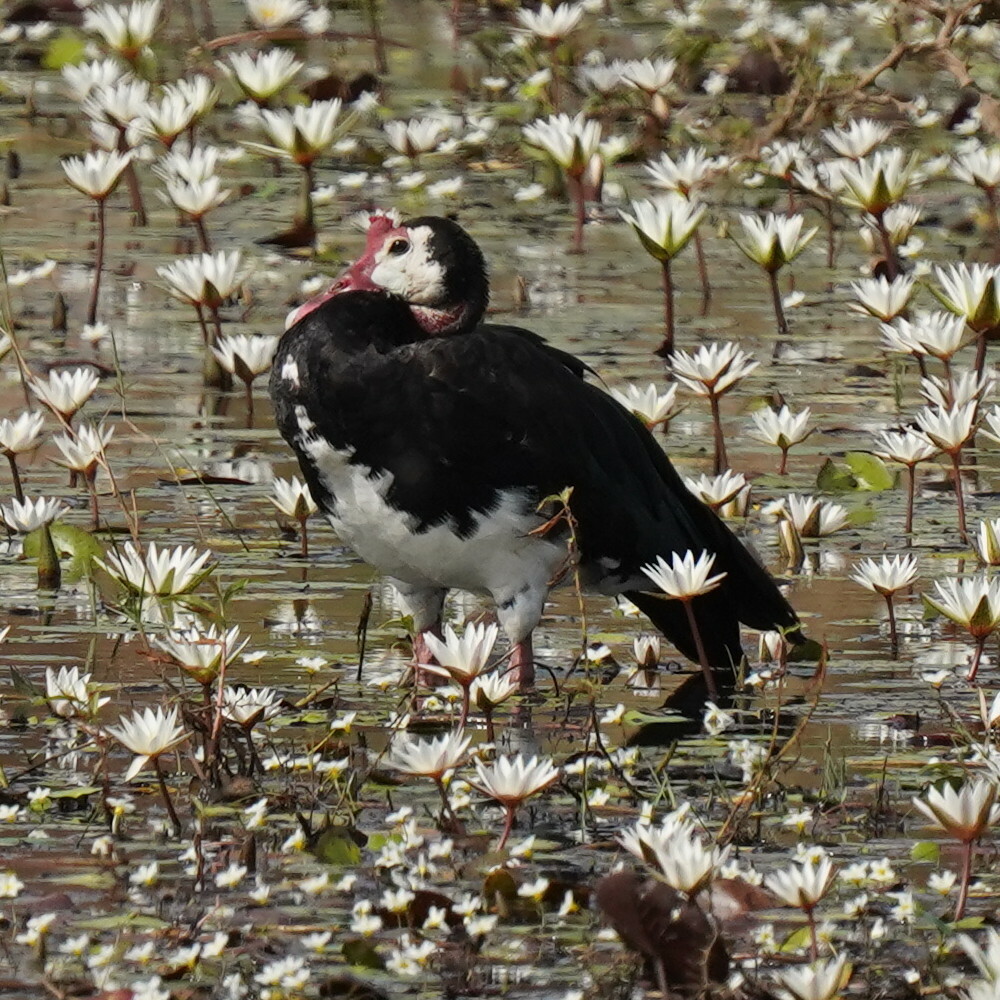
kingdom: Animalia
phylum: Chordata
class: Aves
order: Anseriformes
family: Anatidae
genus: Plectropterus
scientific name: Plectropterus gambensis
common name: Spur-winged goose
